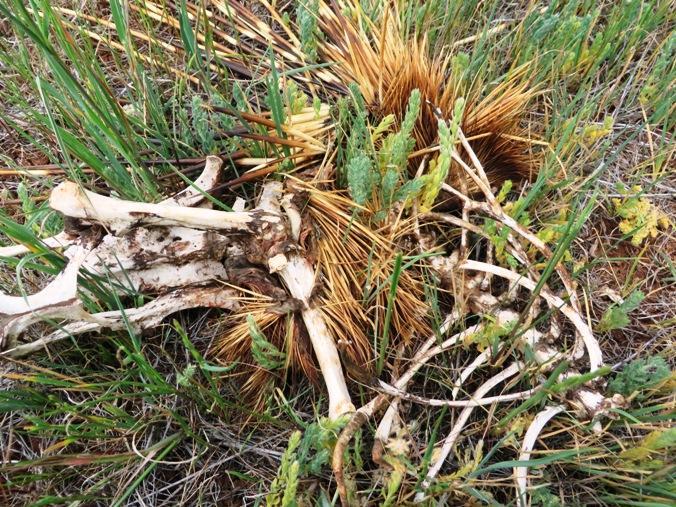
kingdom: Animalia
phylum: Chordata
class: Mammalia
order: Rodentia
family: Hystricidae
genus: Hystrix
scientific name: Hystrix africaeaustralis
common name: Cape porcupine
